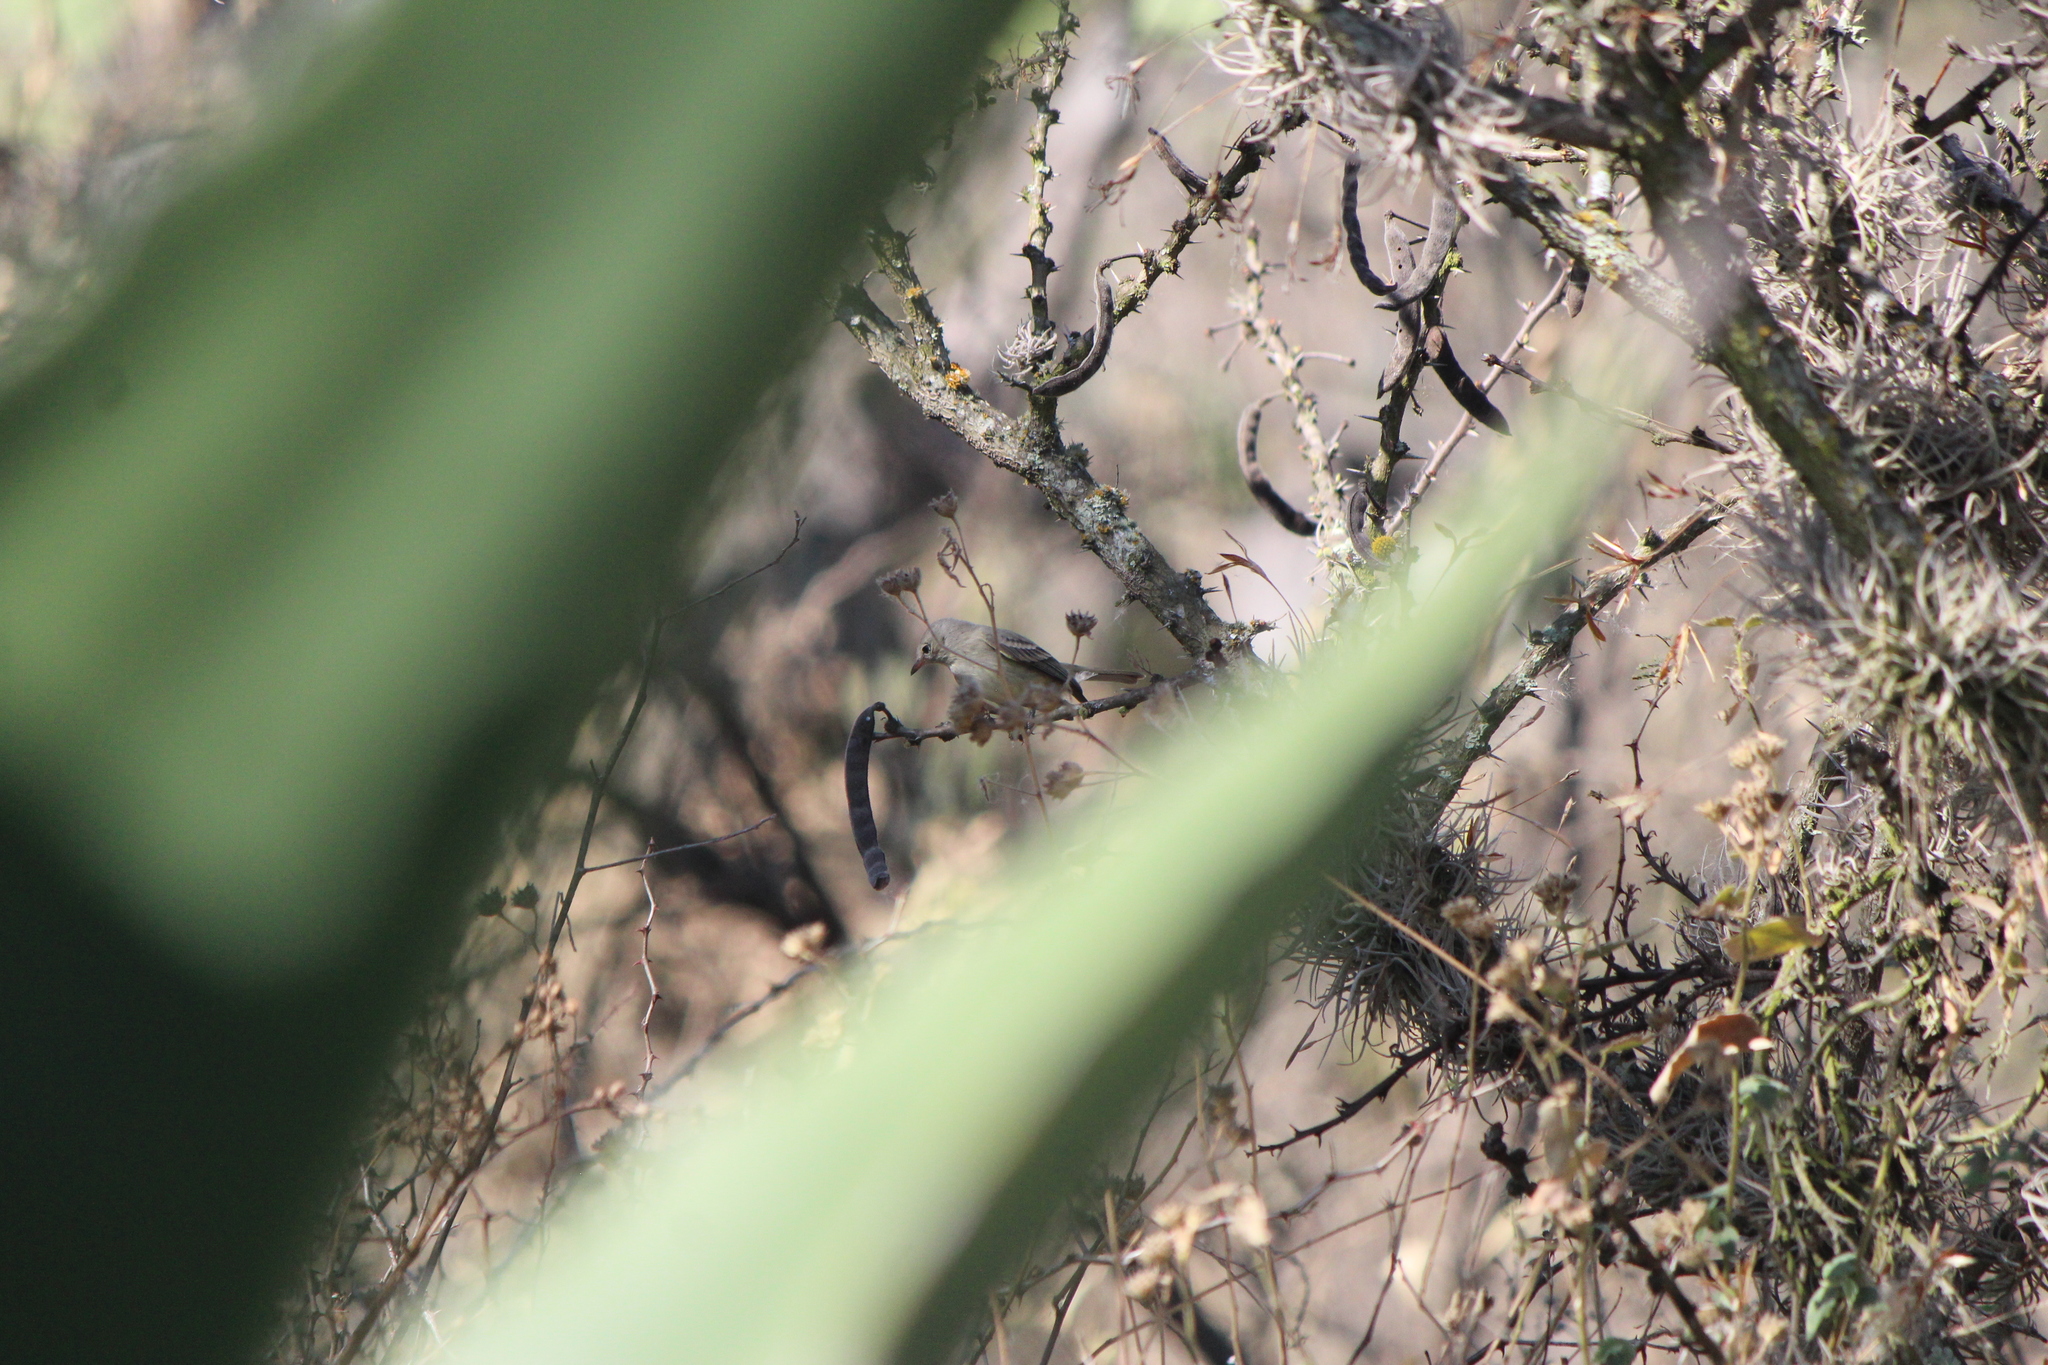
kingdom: Animalia
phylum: Chordata
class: Aves
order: Passeriformes
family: Tyrannidae
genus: Camptostoma
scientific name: Camptostoma imberbe
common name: Northern beardless-tyrannulet
